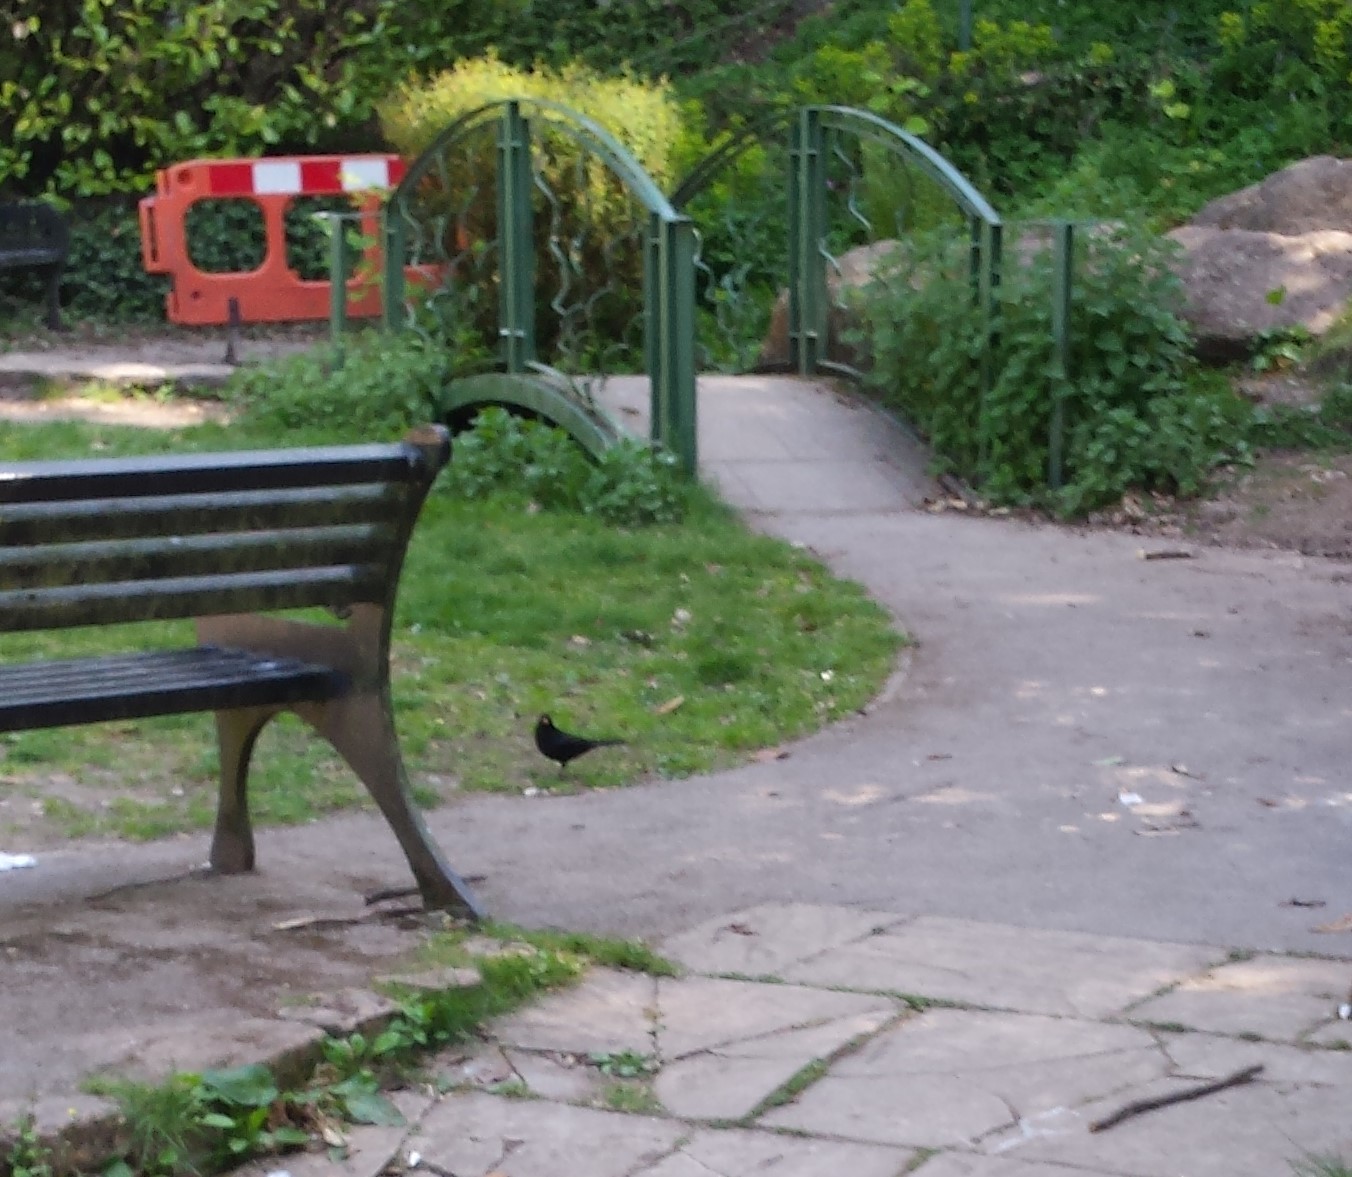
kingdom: Animalia
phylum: Chordata
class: Aves
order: Passeriformes
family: Turdidae
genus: Turdus
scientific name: Turdus merula
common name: Common blackbird
